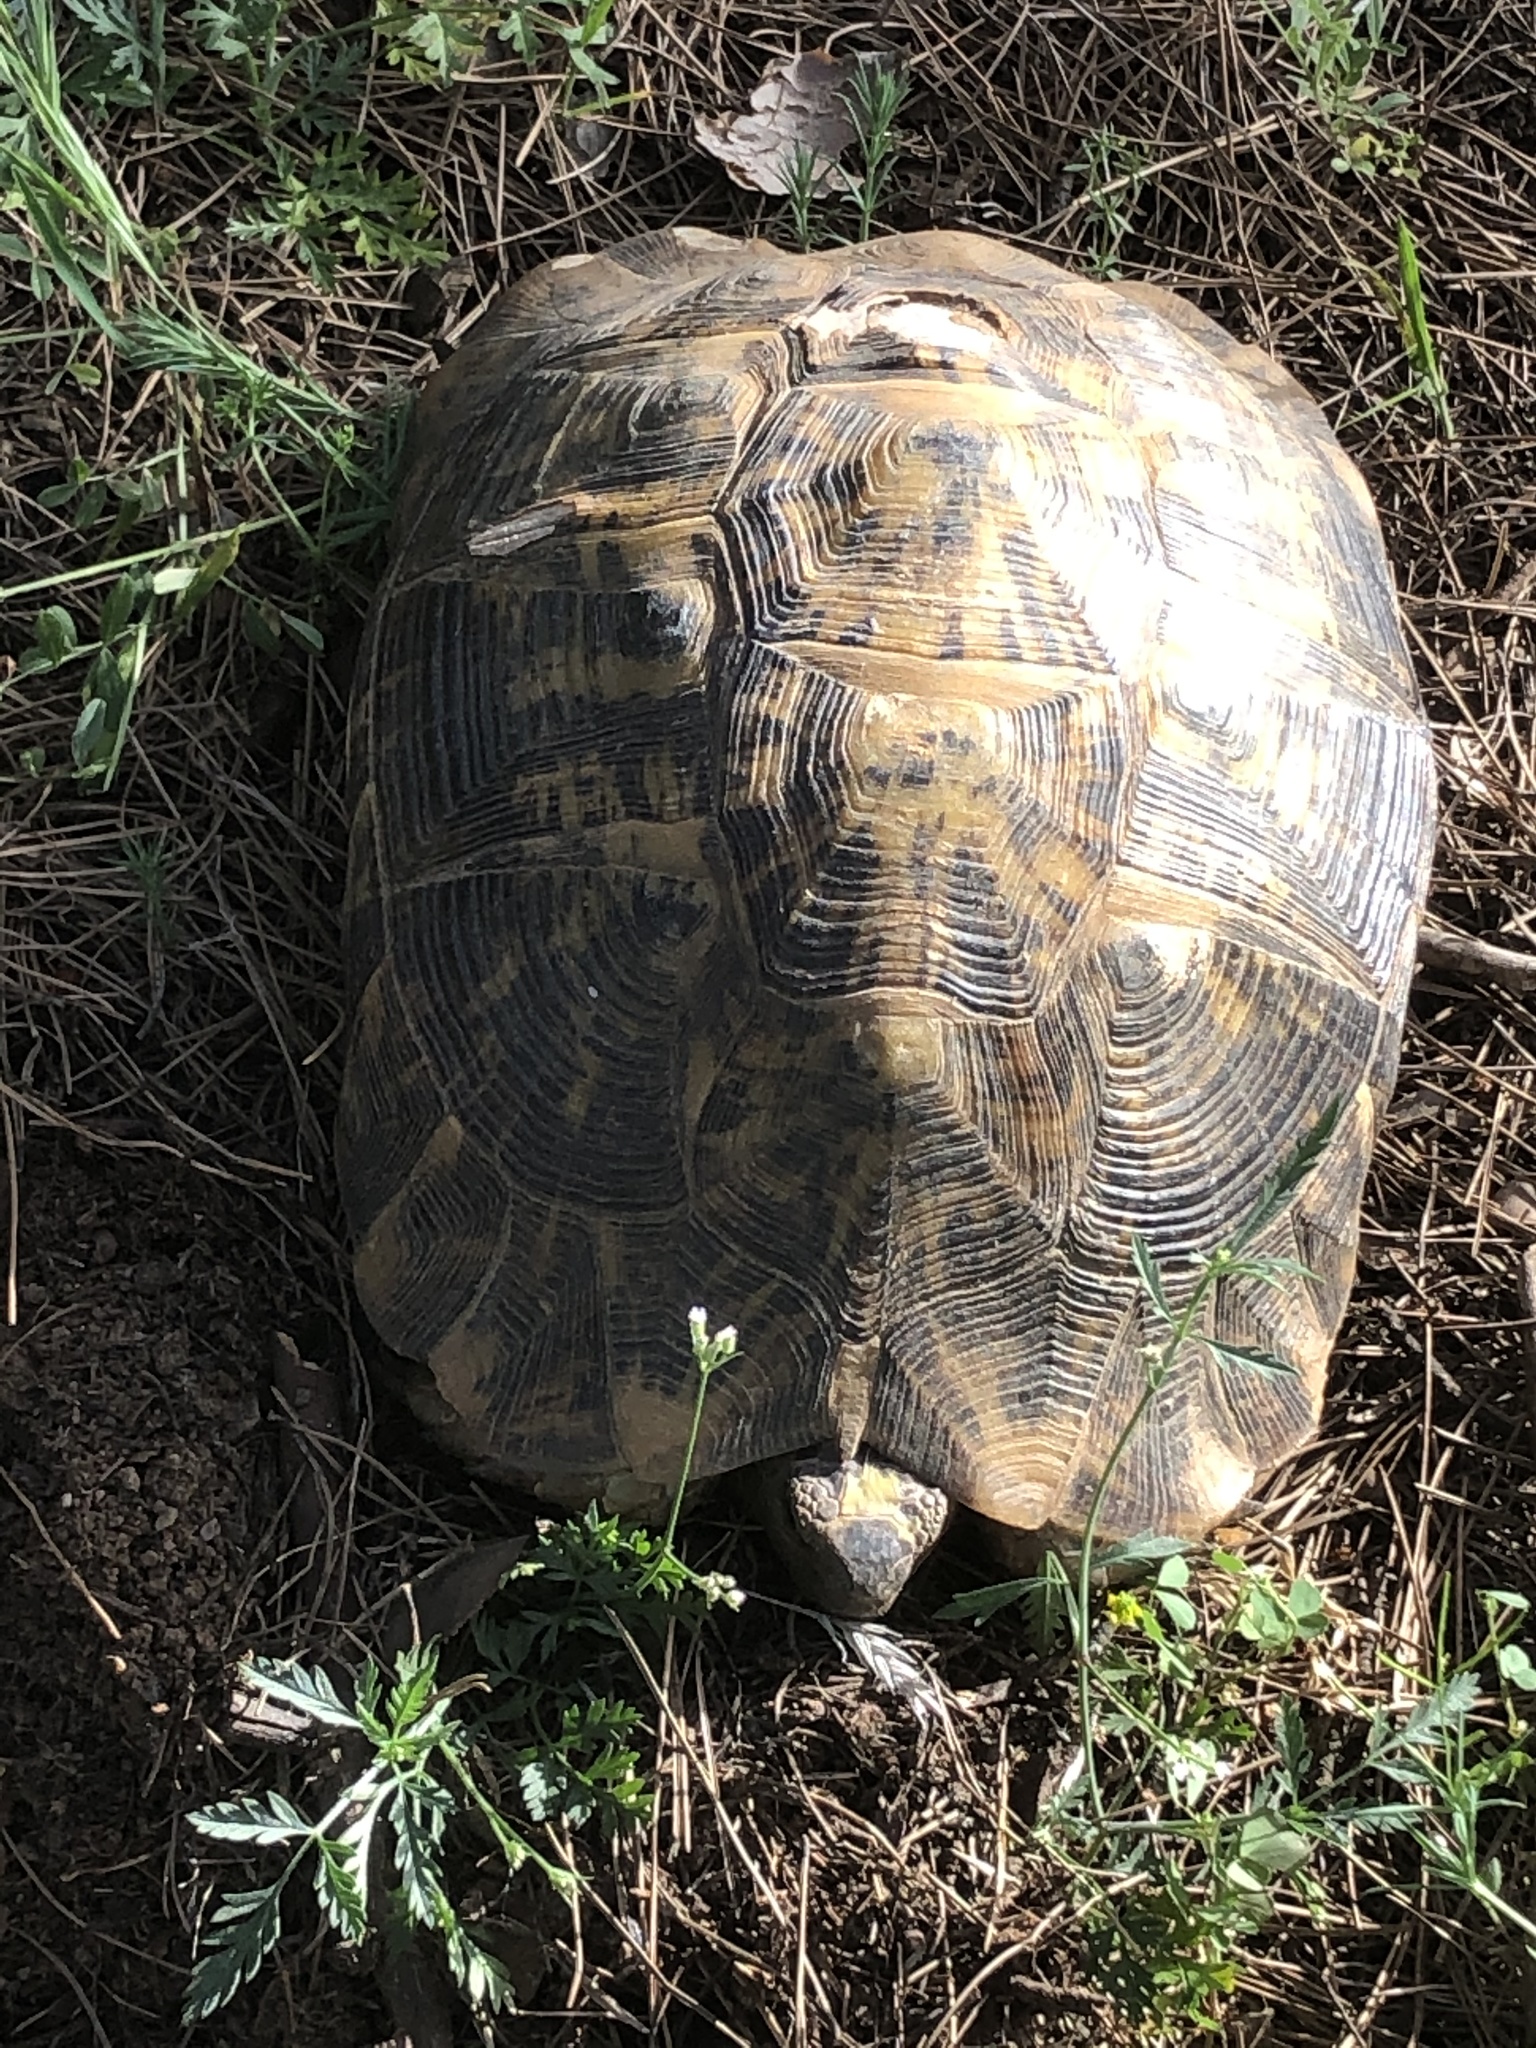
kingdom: Animalia
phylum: Chordata
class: Testudines
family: Testudinidae
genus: Testudo
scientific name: Testudo graeca
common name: Common tortoise
